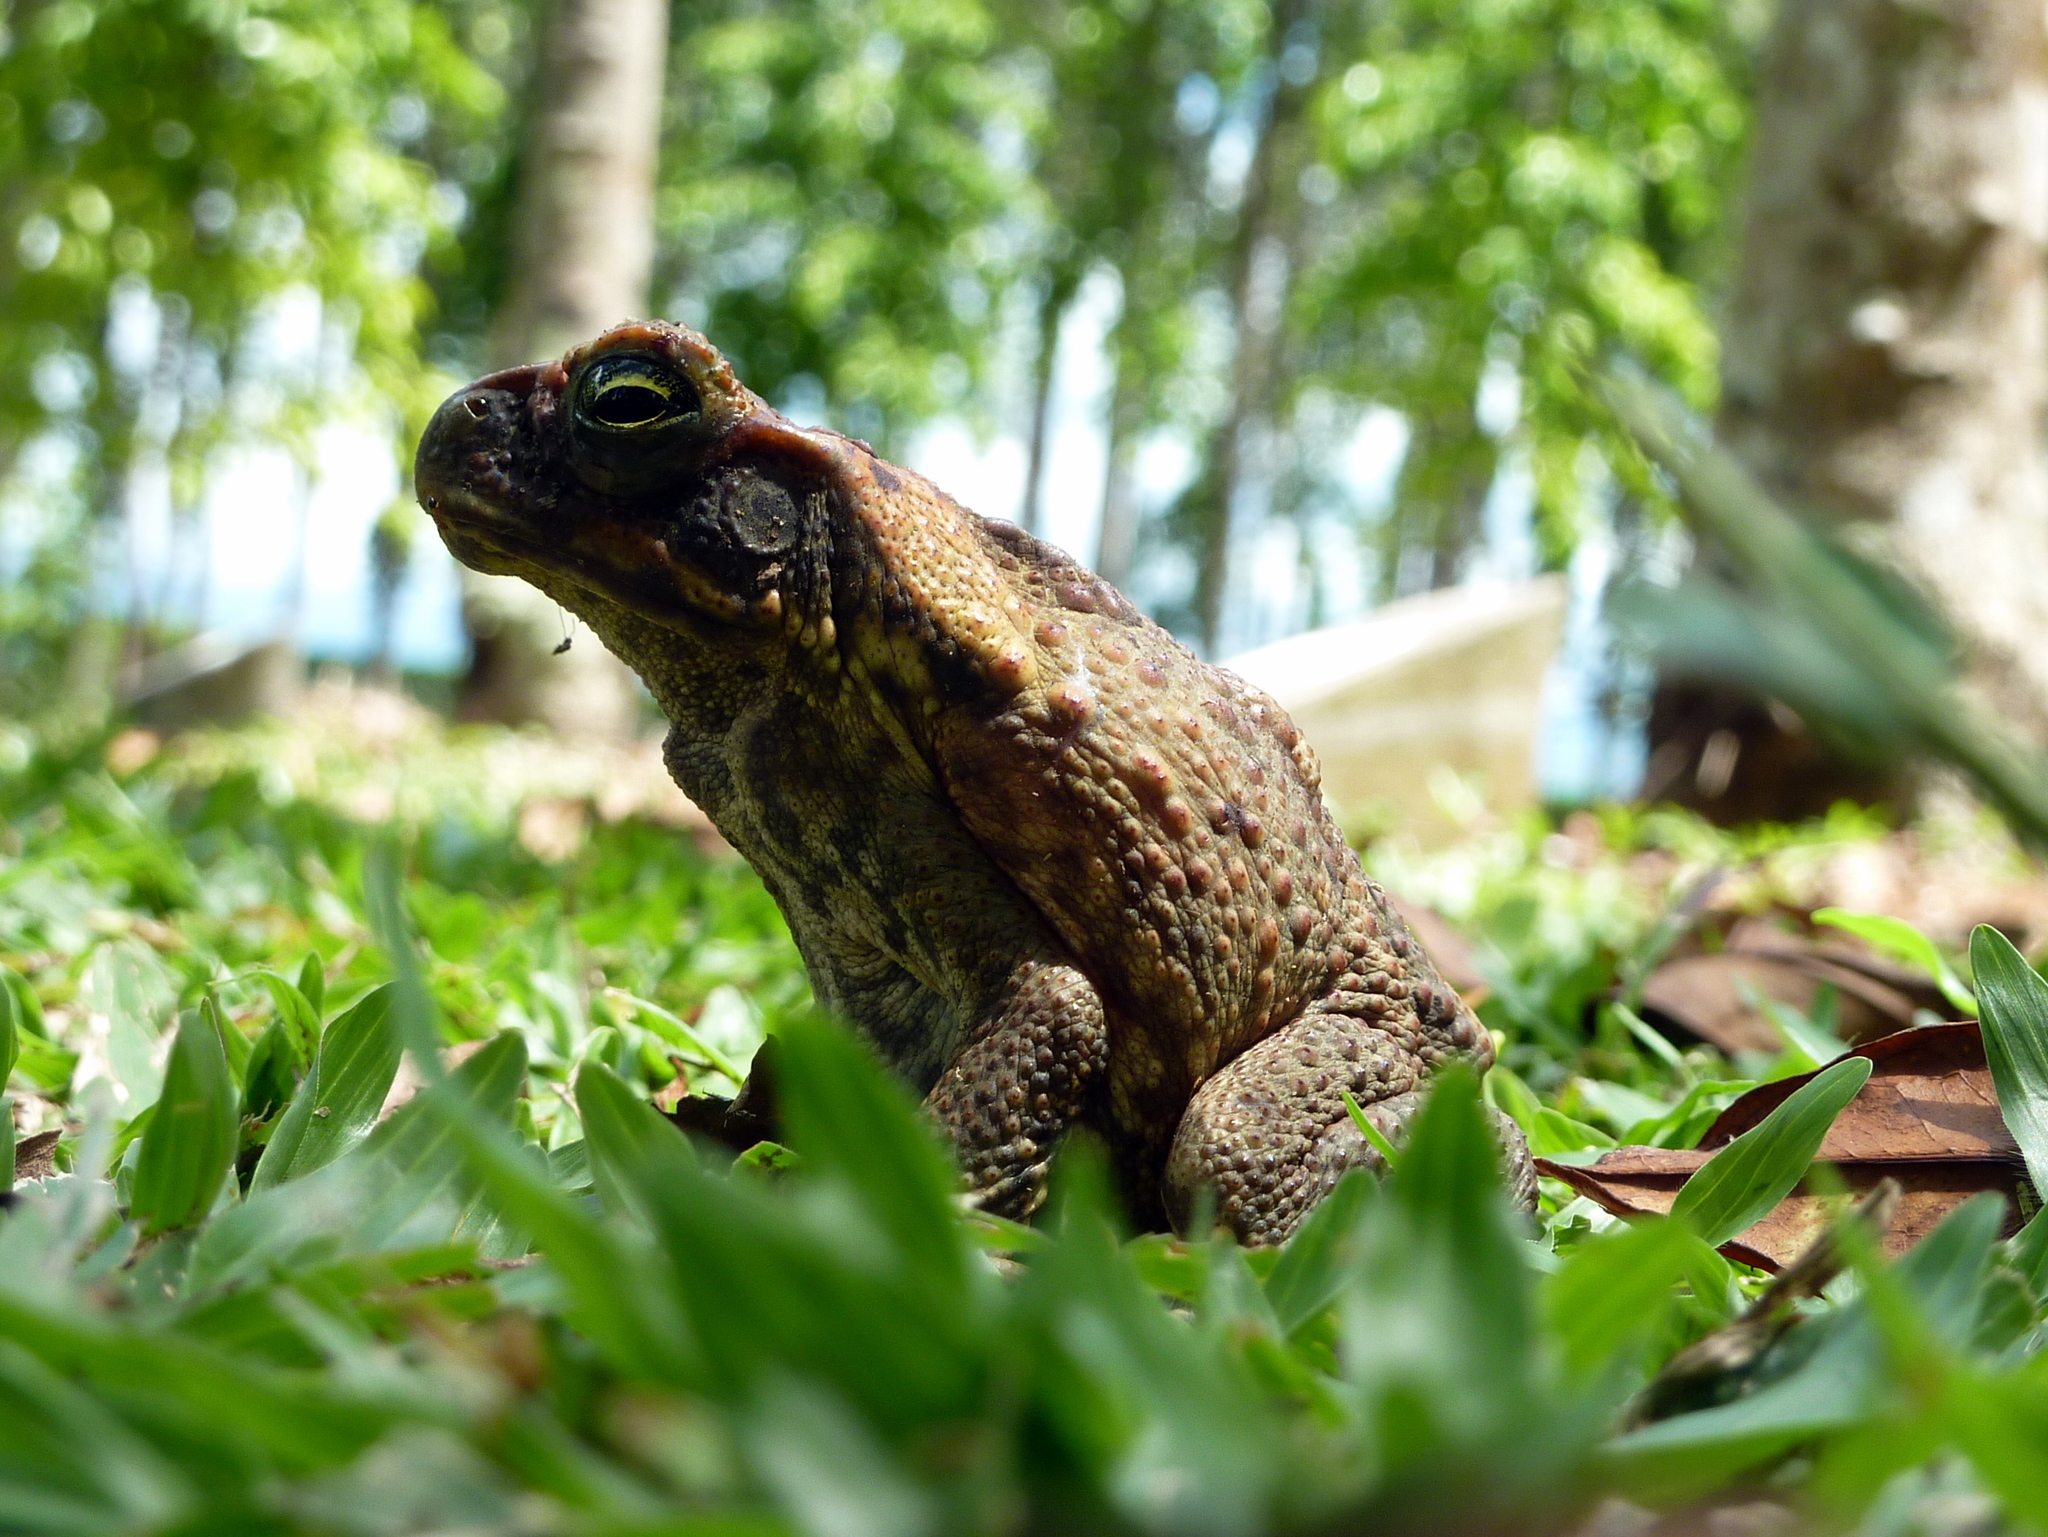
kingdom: Animalia
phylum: Chordata
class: Amphibia
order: Anura
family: Bufonidae
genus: Rhinella
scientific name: Rhinella marina
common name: Cane toad
